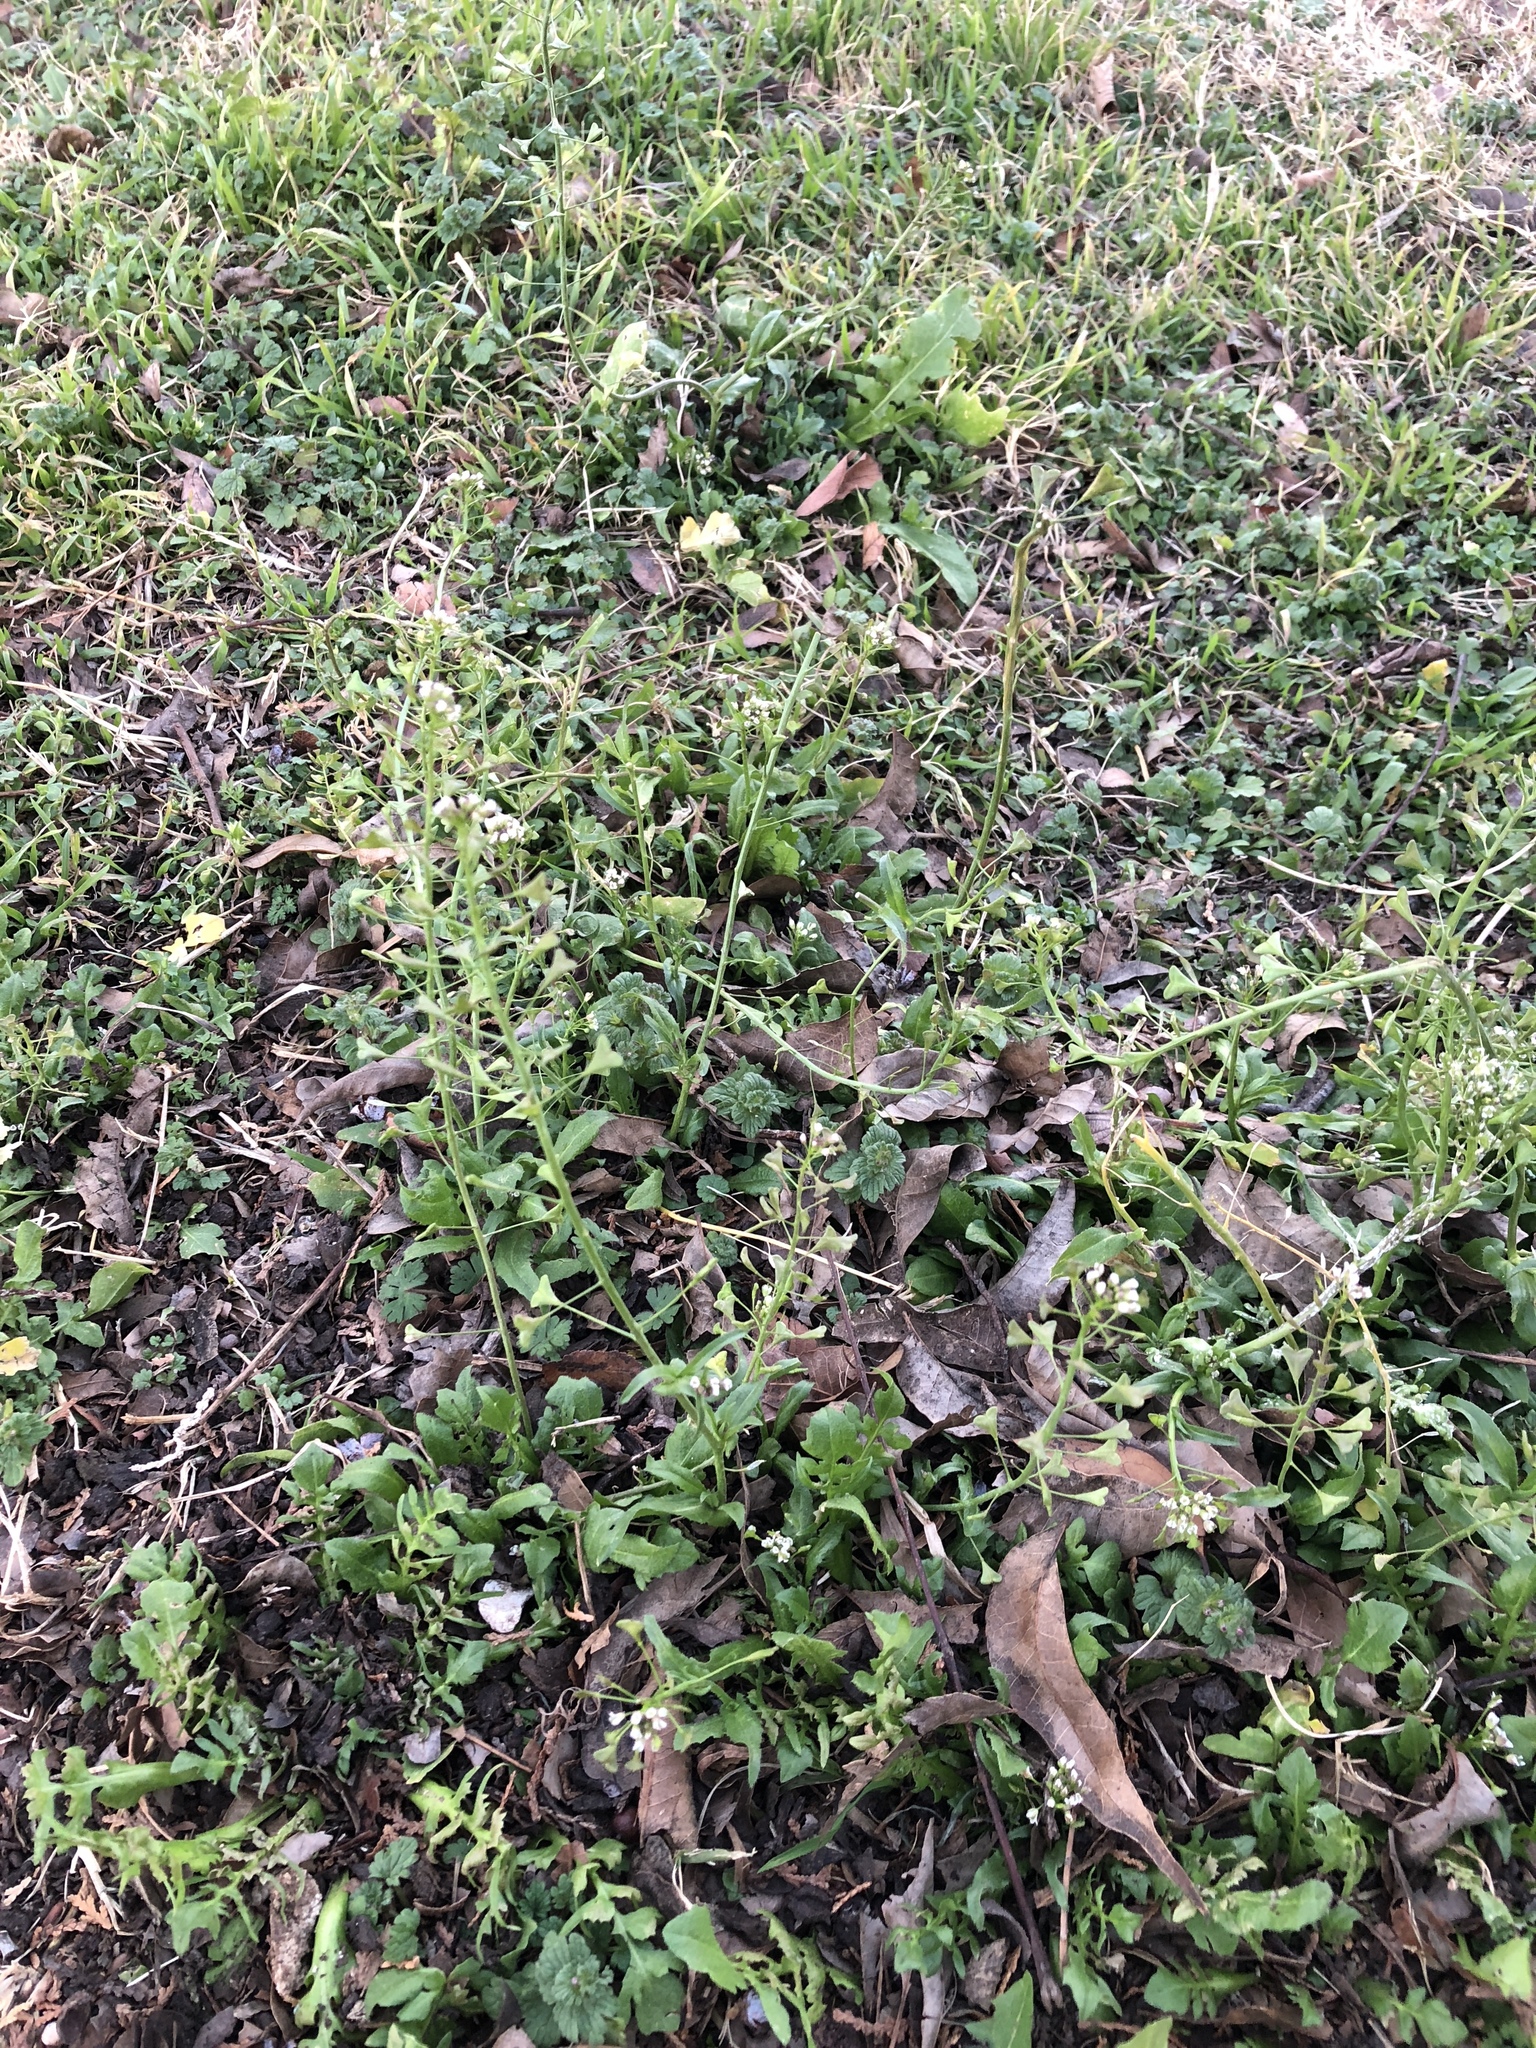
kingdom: Plantae
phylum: Tracheophyta
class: Magnoliopsida
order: Brassicales
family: Brassicaceae
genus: Capsella
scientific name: Capsella bursa-pastoris
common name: Shepherd's purse
